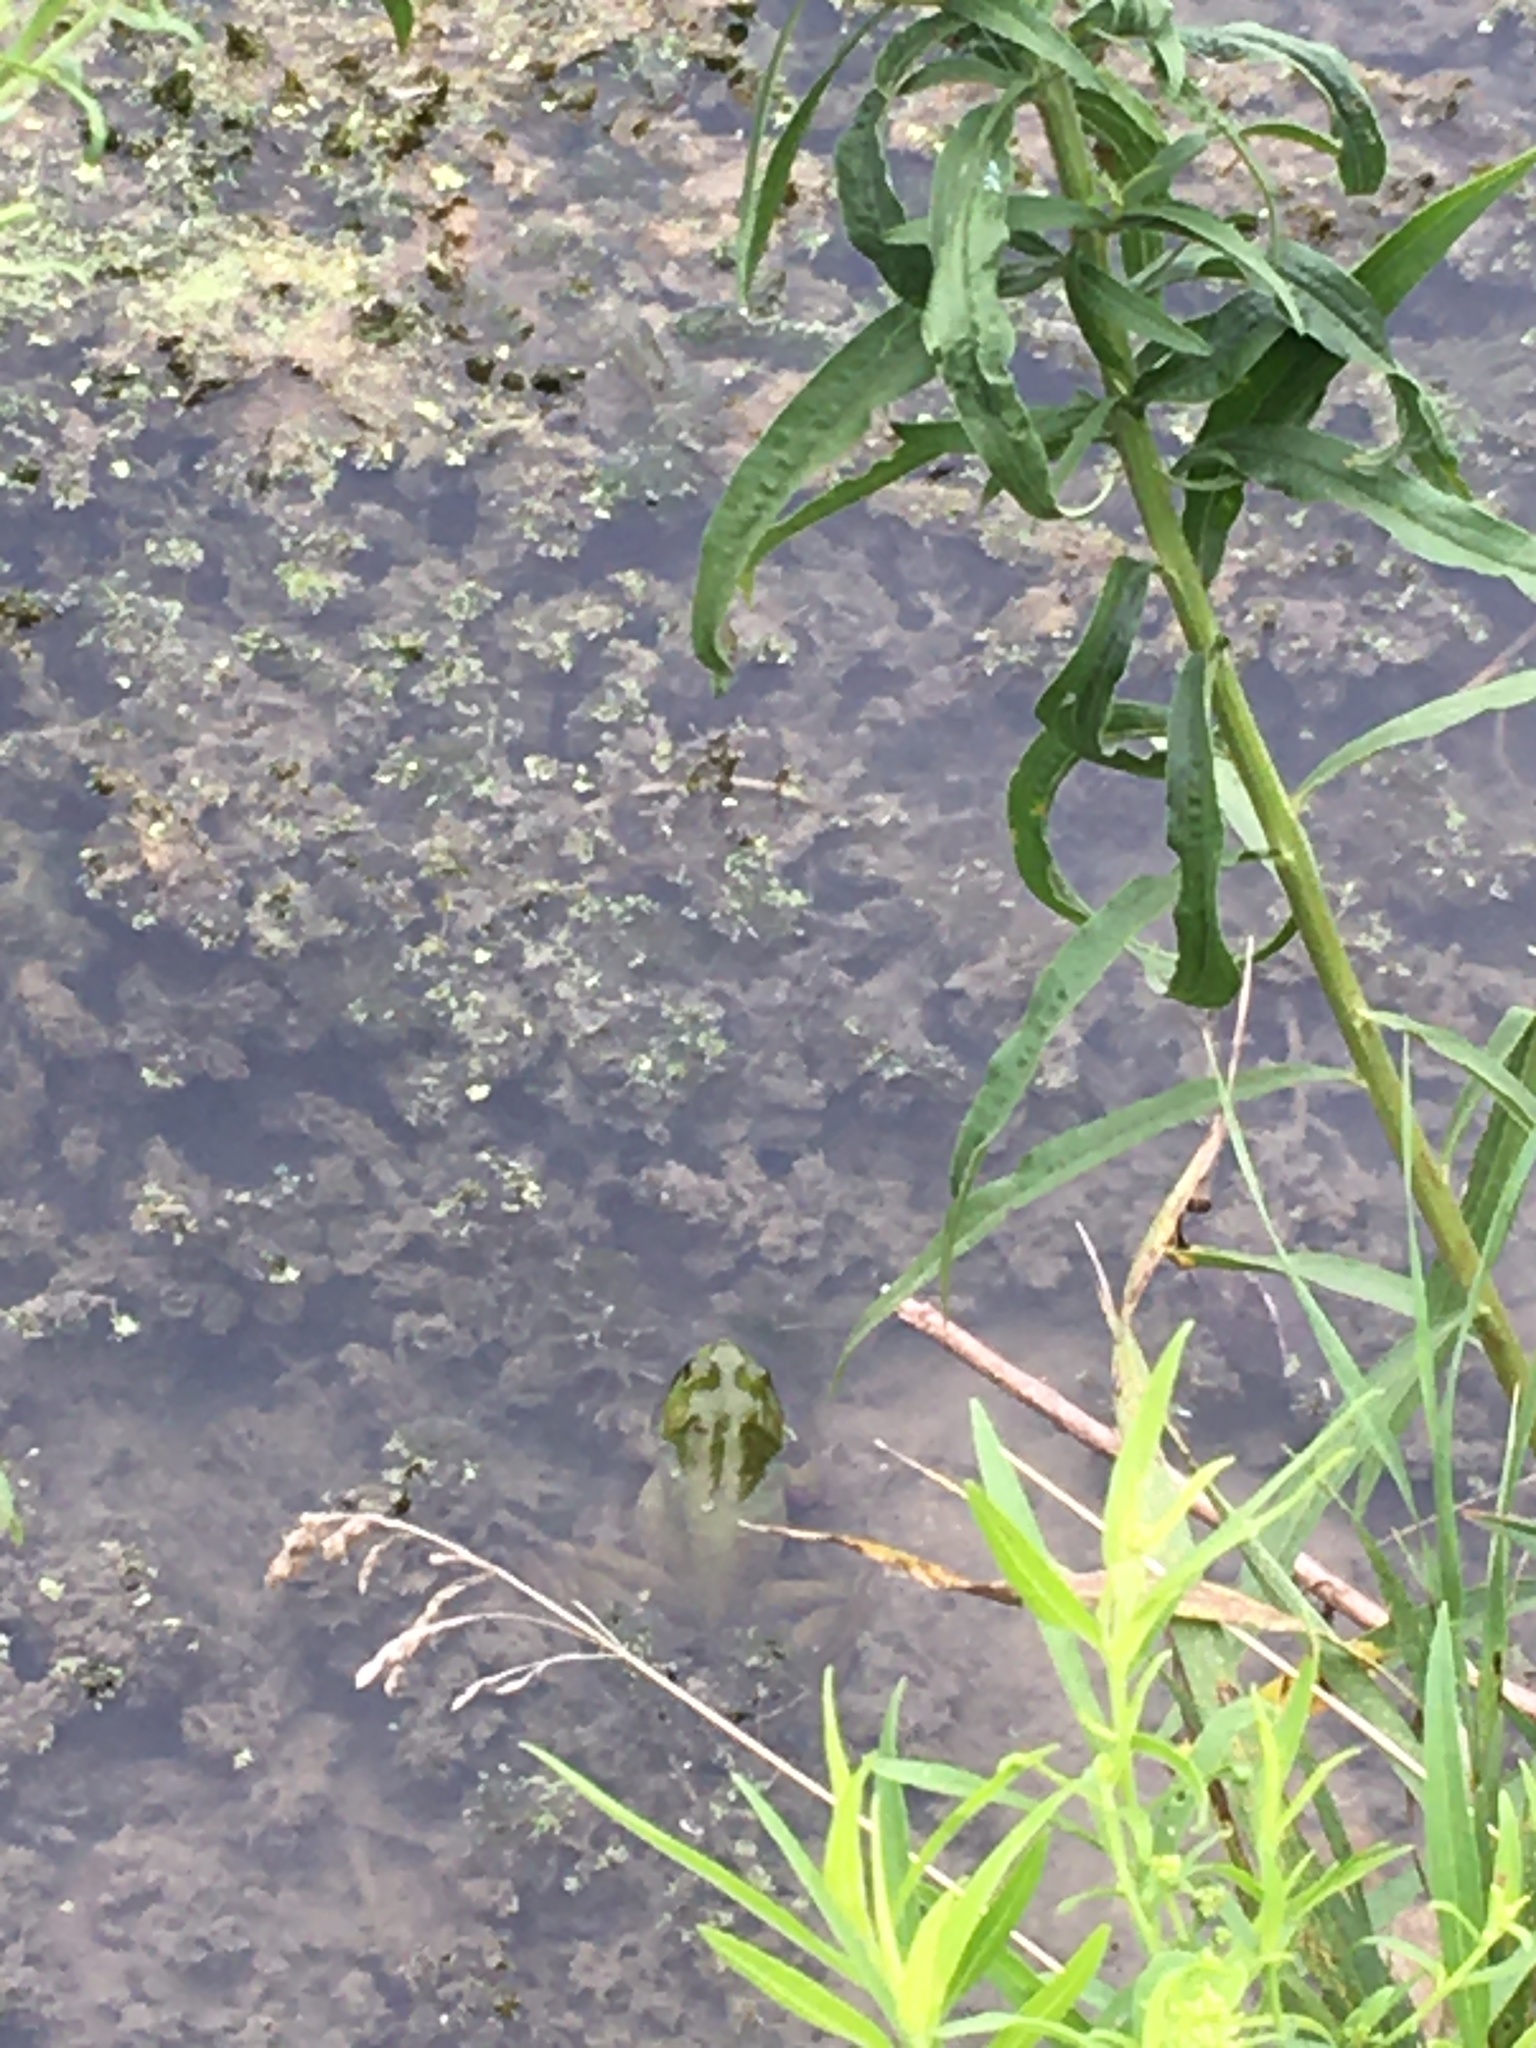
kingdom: Animalia
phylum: Chordata
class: Amphibia
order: Anura
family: Ranidae
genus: Lithobates
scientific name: Lithobates catesbeianus
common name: American bullfrog
